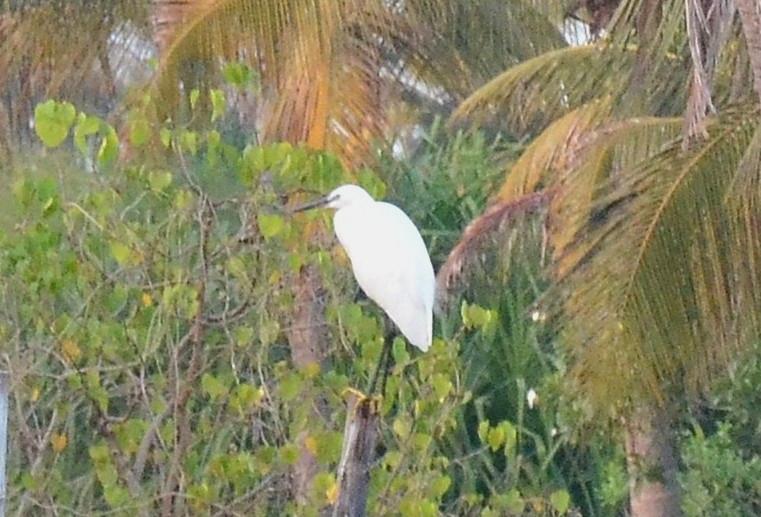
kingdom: Animalia
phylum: Chordata
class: Aves
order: Pelecaniformes
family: Ardeidae
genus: Egretta
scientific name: Egretta garzetta
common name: Little egret
